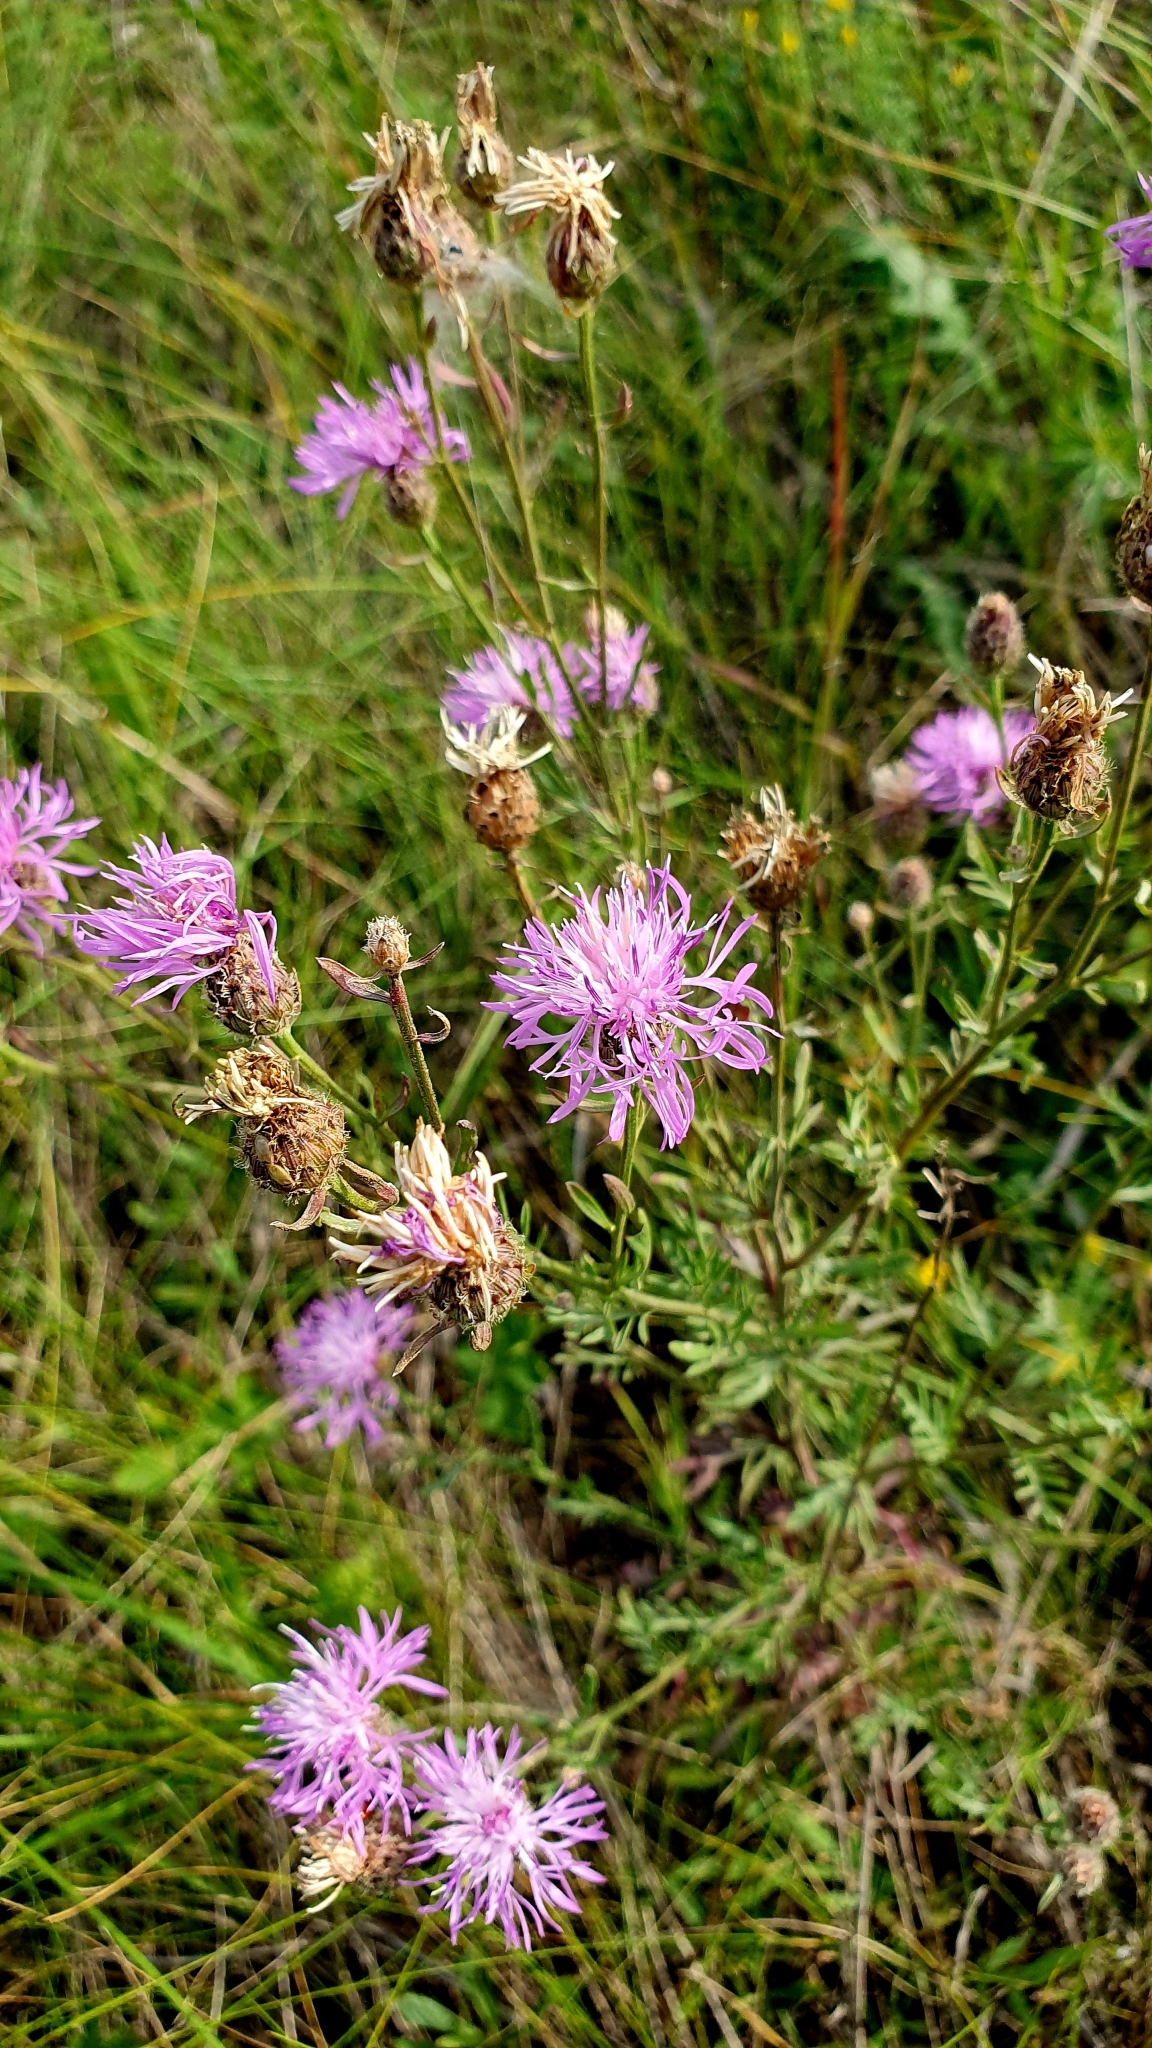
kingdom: Plantae
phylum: Tracheophyta
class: Magnoliopsida
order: Asterales
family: Asteraceae
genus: Centaurea
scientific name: Centaurea stoebe
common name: Spotted knapweed
